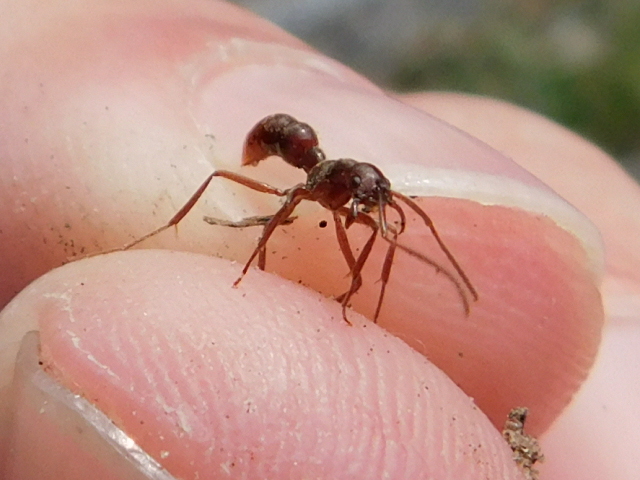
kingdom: Animalia
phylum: Arthropoda
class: Insecta
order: Hymenoptera
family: Formicidae
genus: Leptogenys
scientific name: Leptogenys elongata
